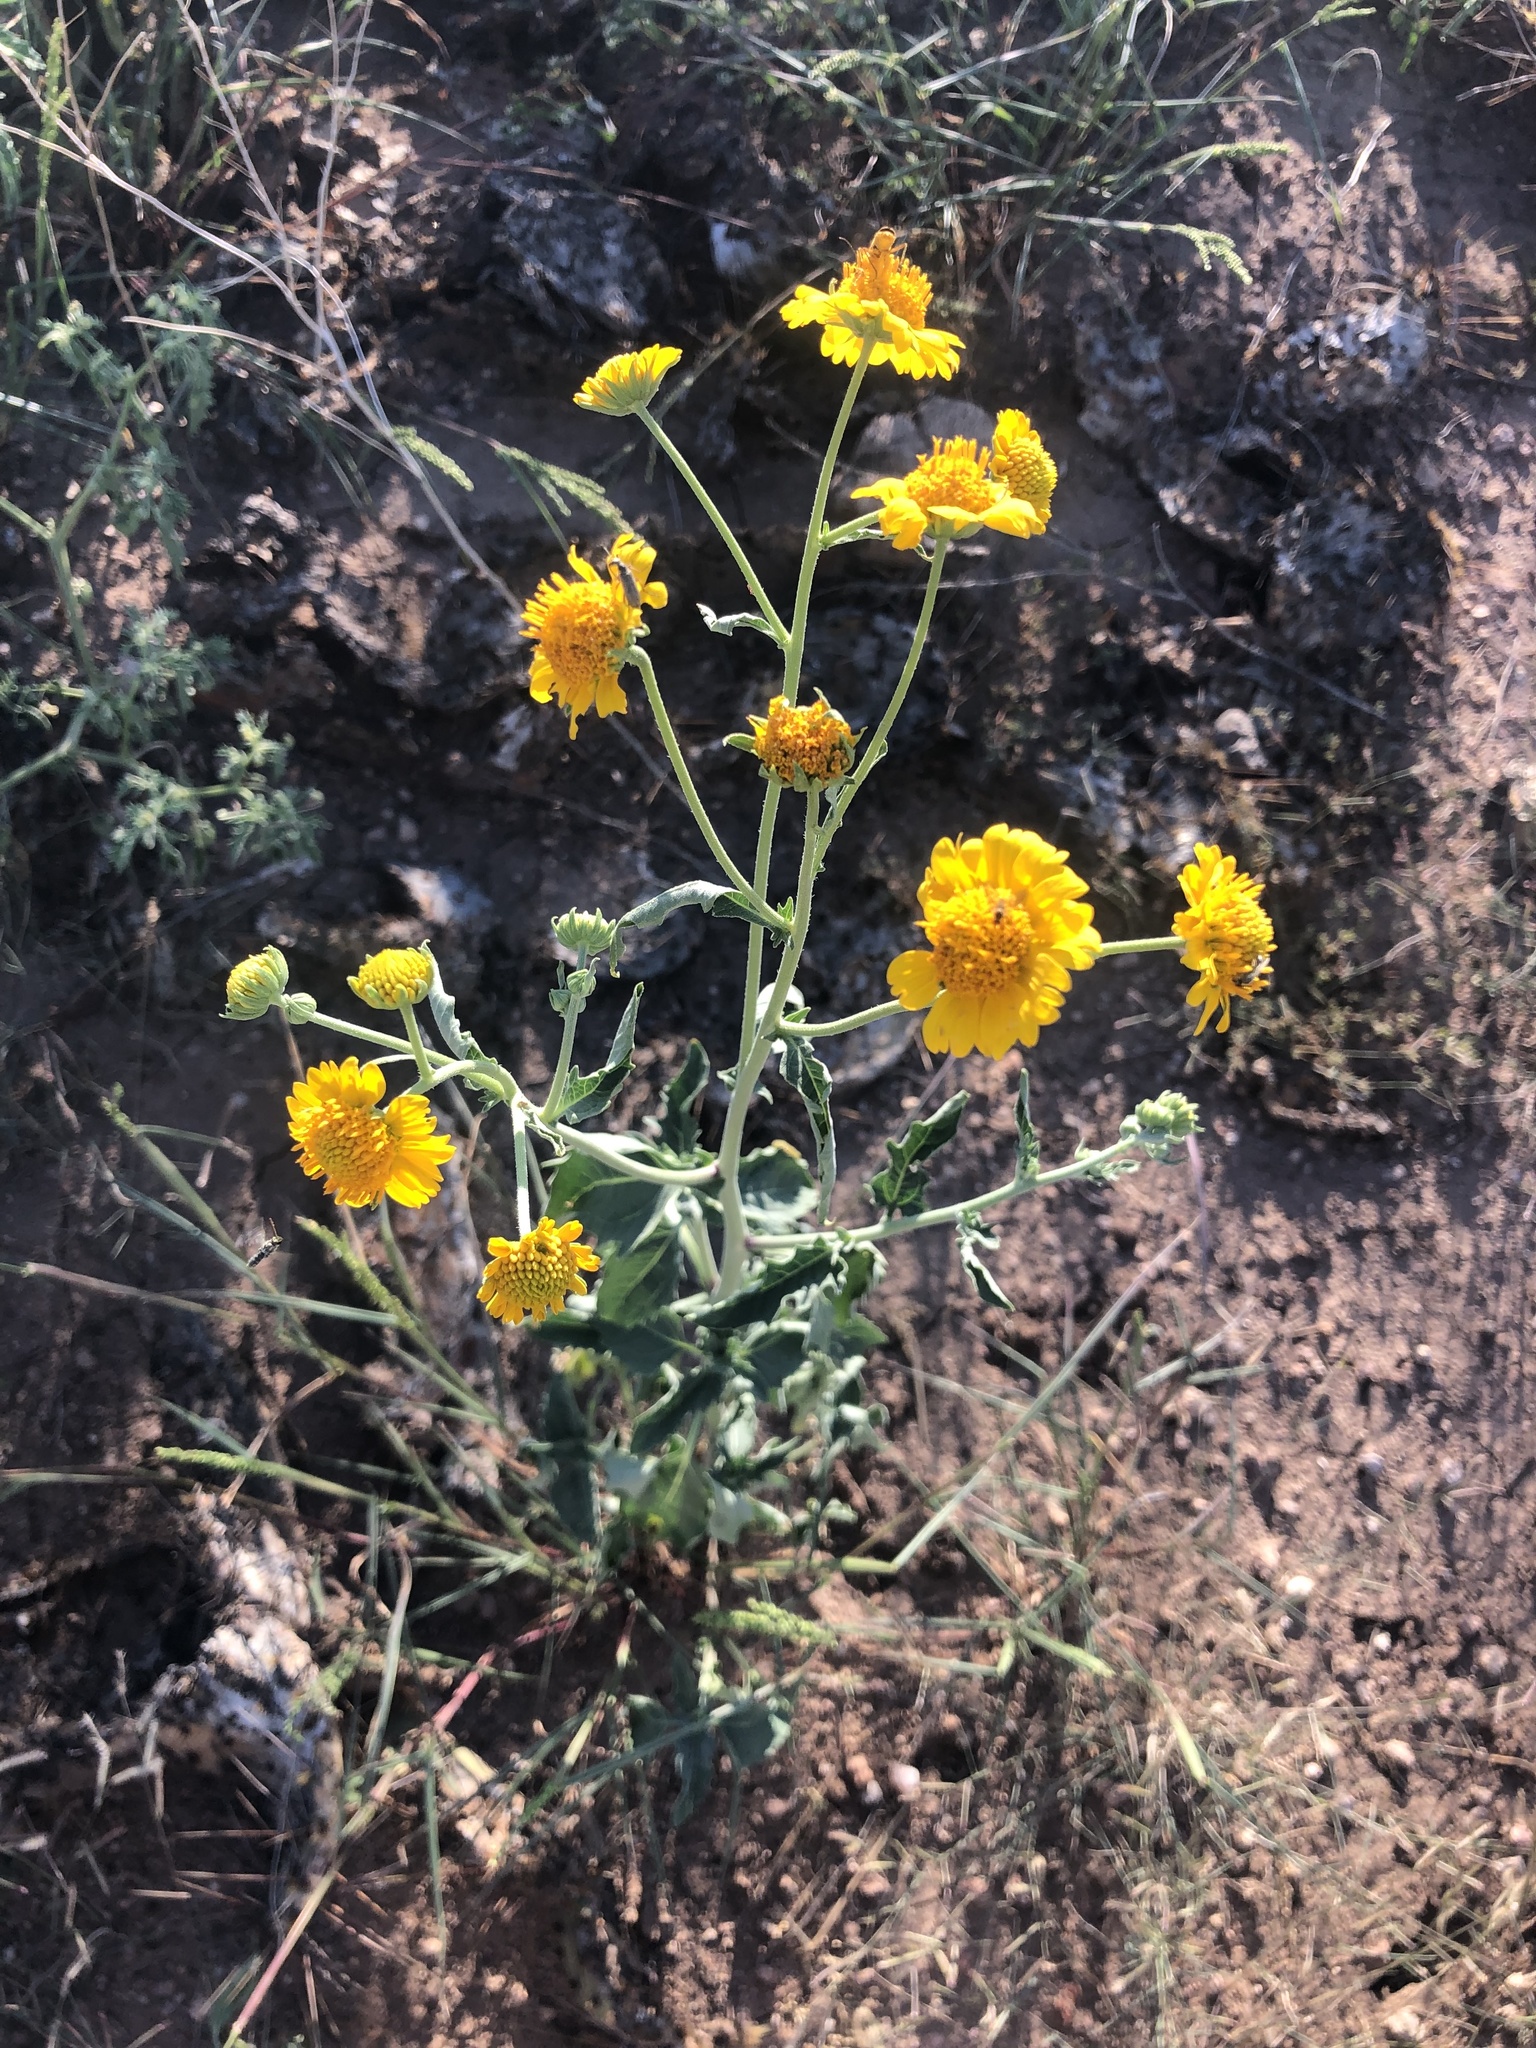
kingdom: Plantae
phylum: Tracheophyta
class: Magnoliopsida
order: Asterales
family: Asteraceae
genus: Verbesina
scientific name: Verbesina encelioides
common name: Golden crownbeard
